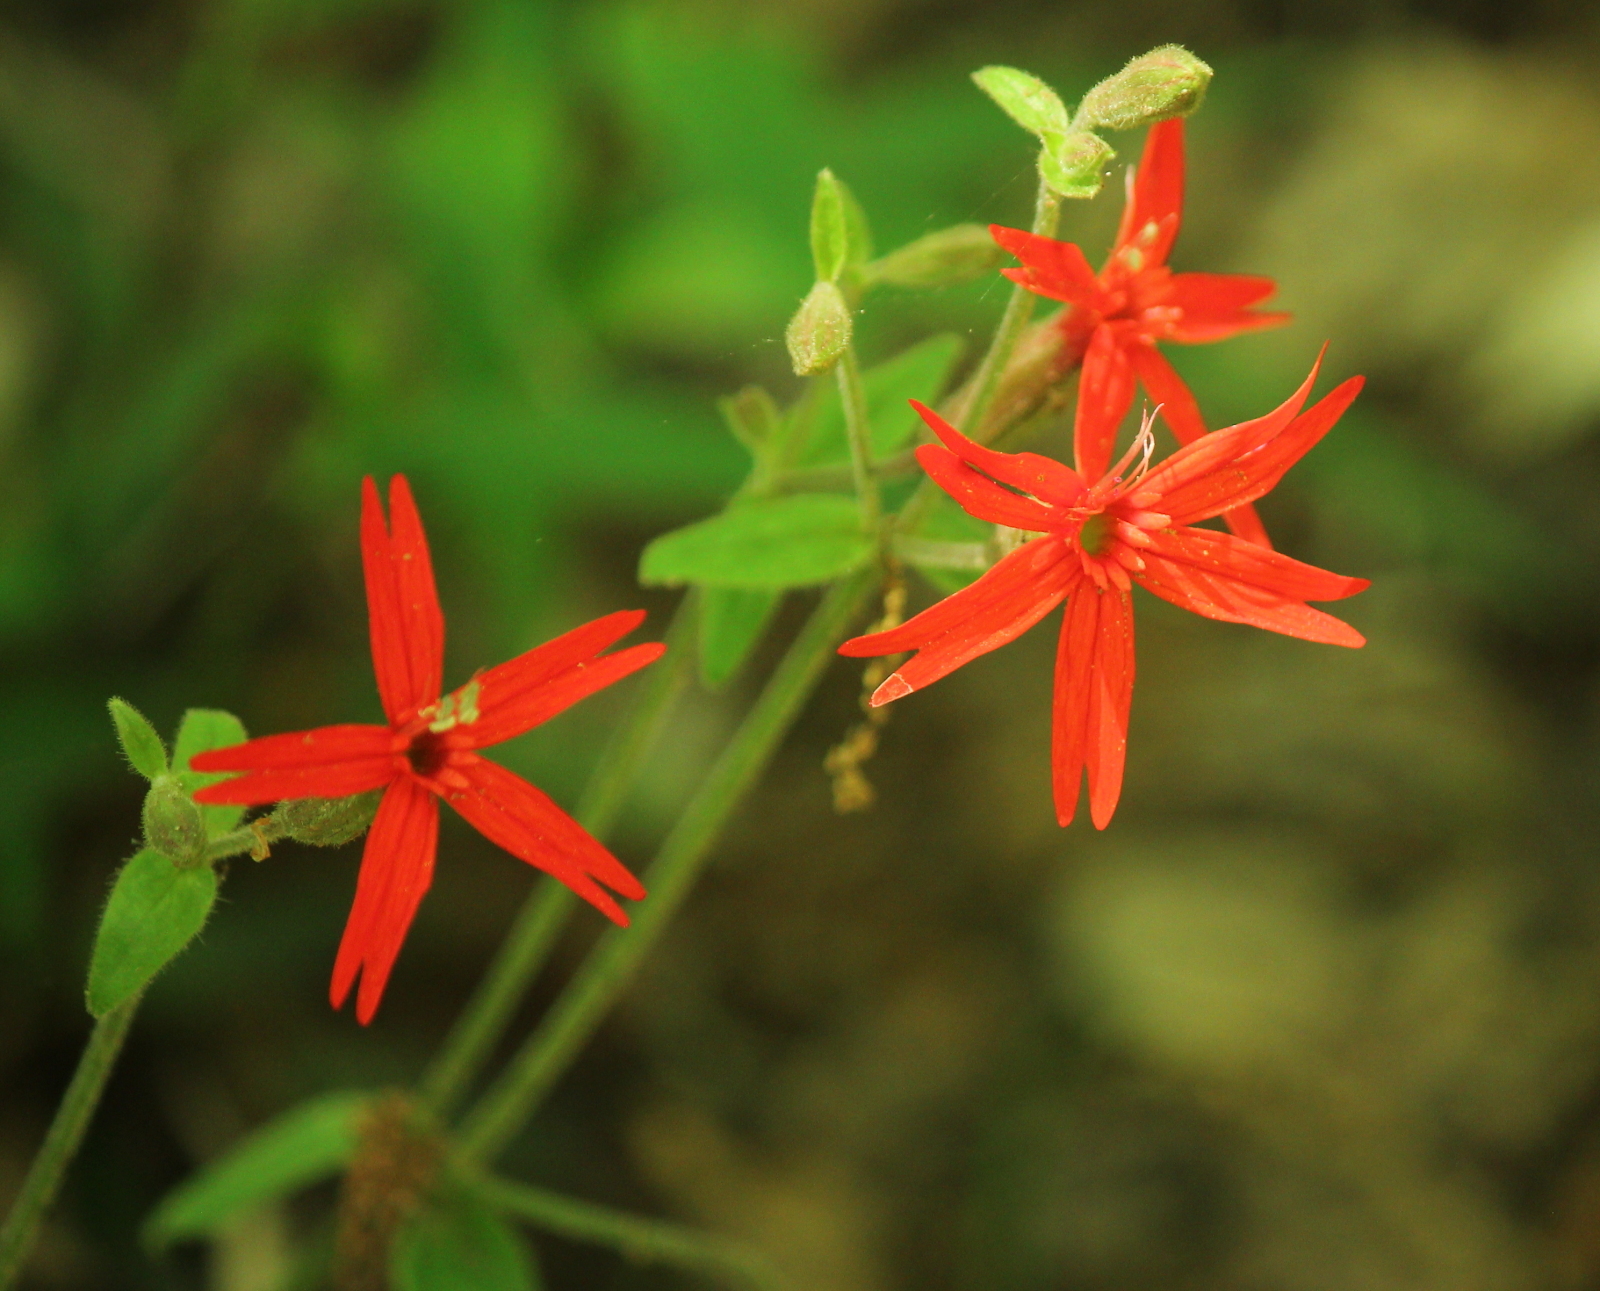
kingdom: Plantae
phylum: Tracheophyta
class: Magnoliopsida
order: Caryophyllales
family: Caryophyllaceae
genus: Silene
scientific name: Silene virginica
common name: Fire-pink
